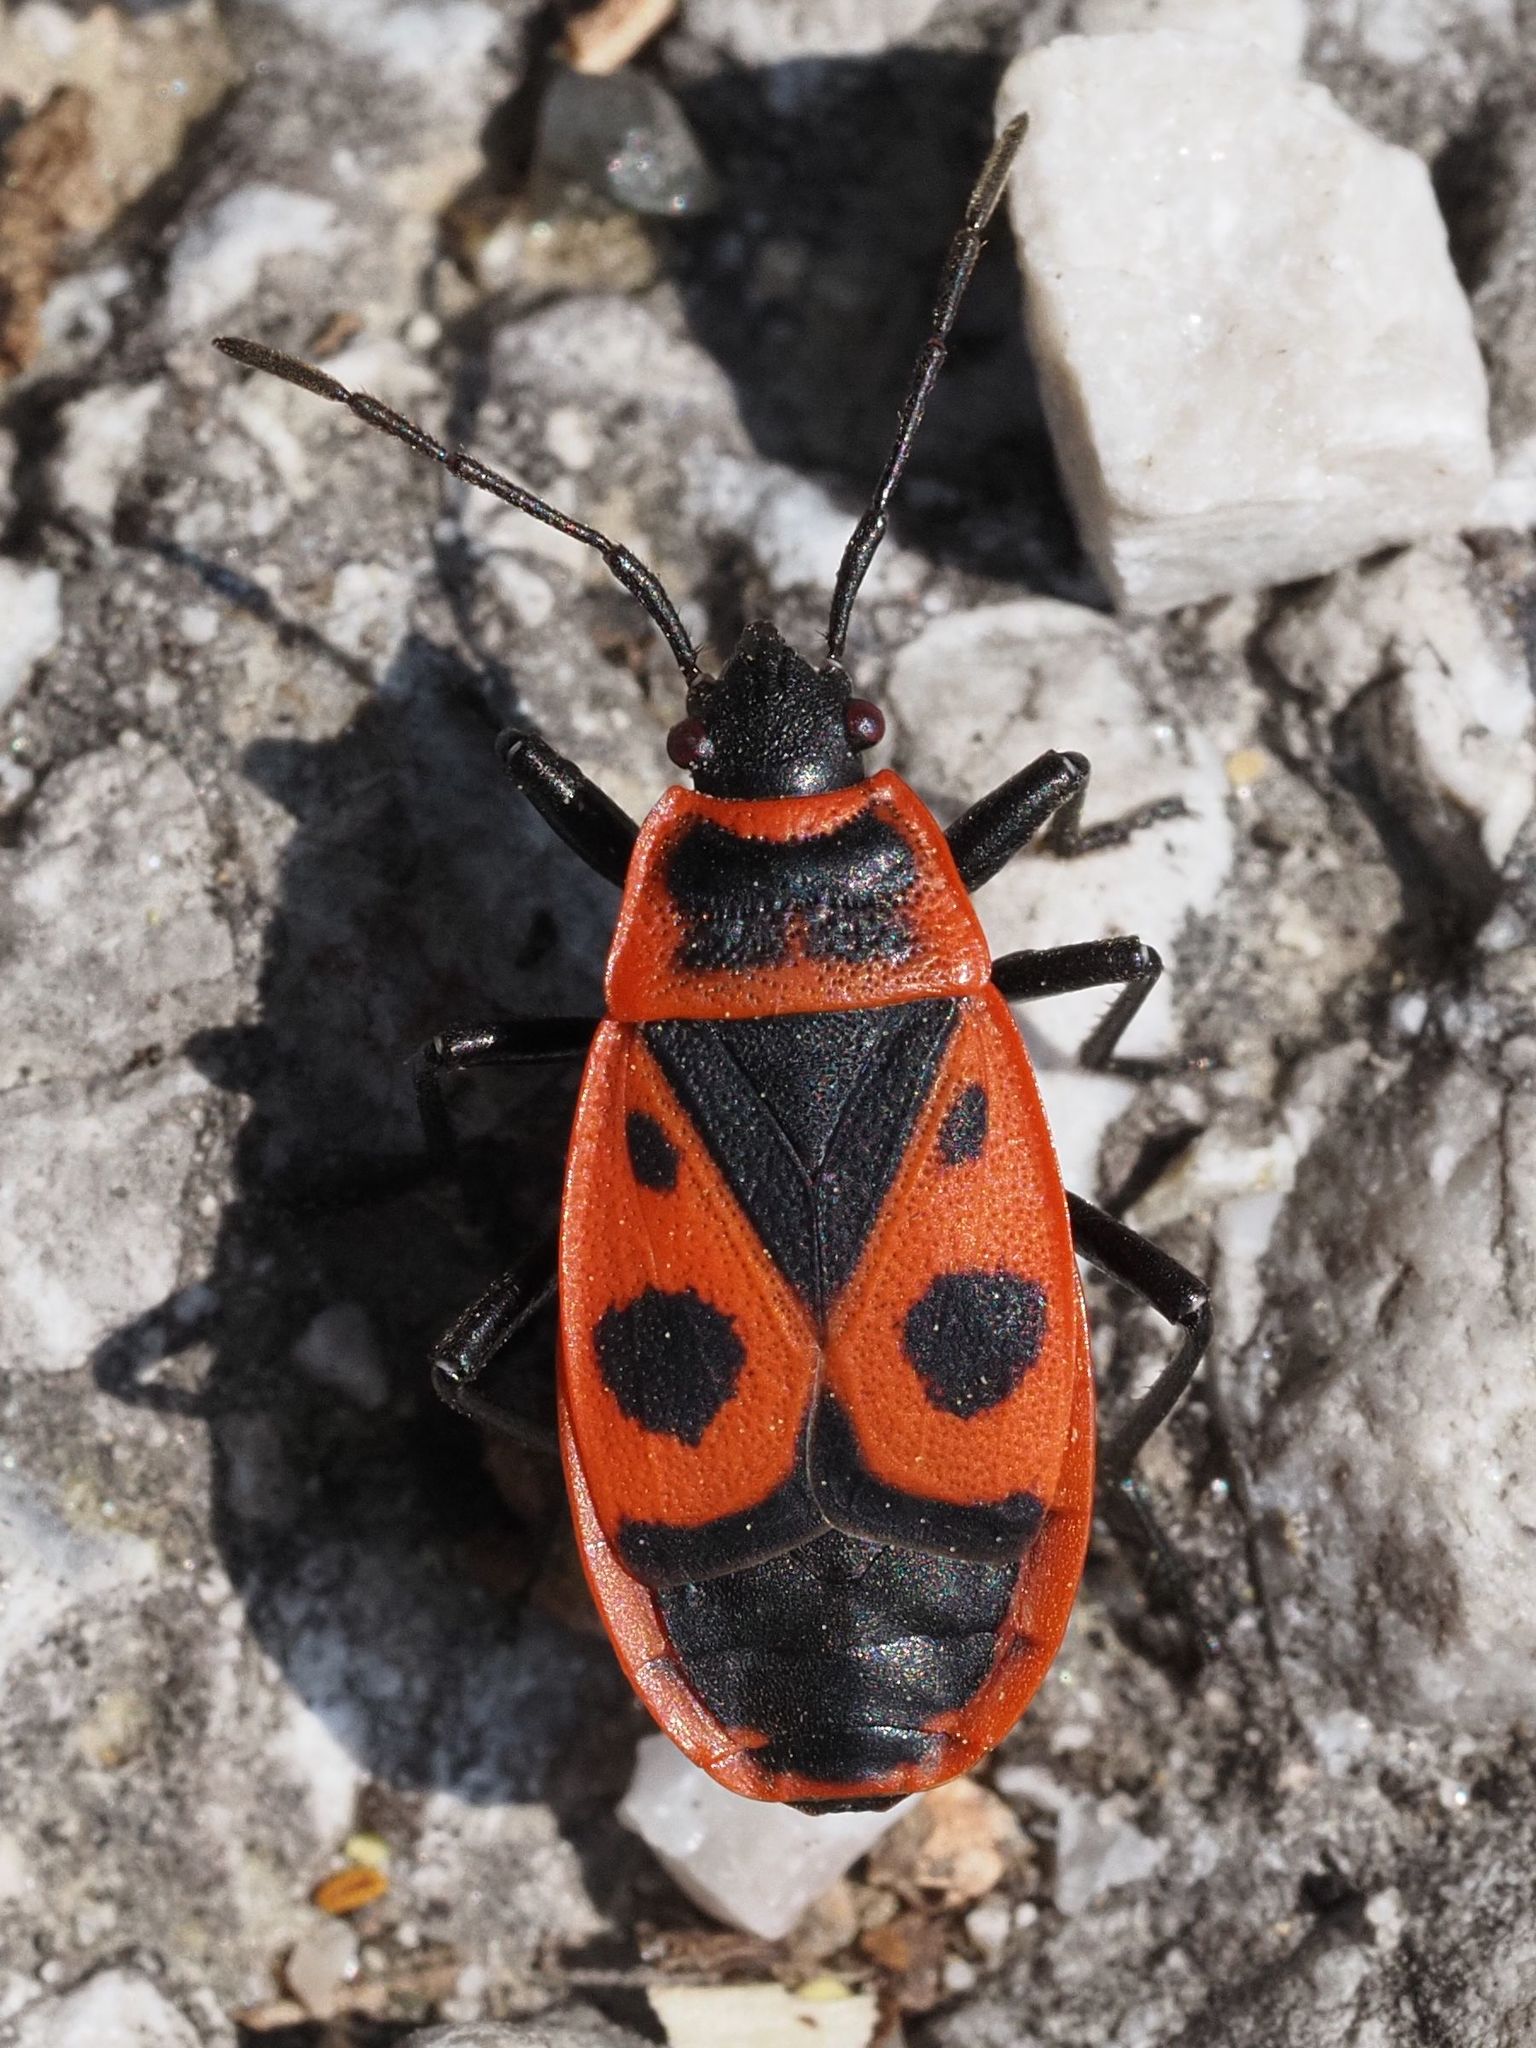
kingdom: Animalia
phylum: Arthropoda
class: Insecta
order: Hemiptera
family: Pyrrhocoridae
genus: Pyrrhocoris
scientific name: Pyrrhocoris apterus
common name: Firebug
